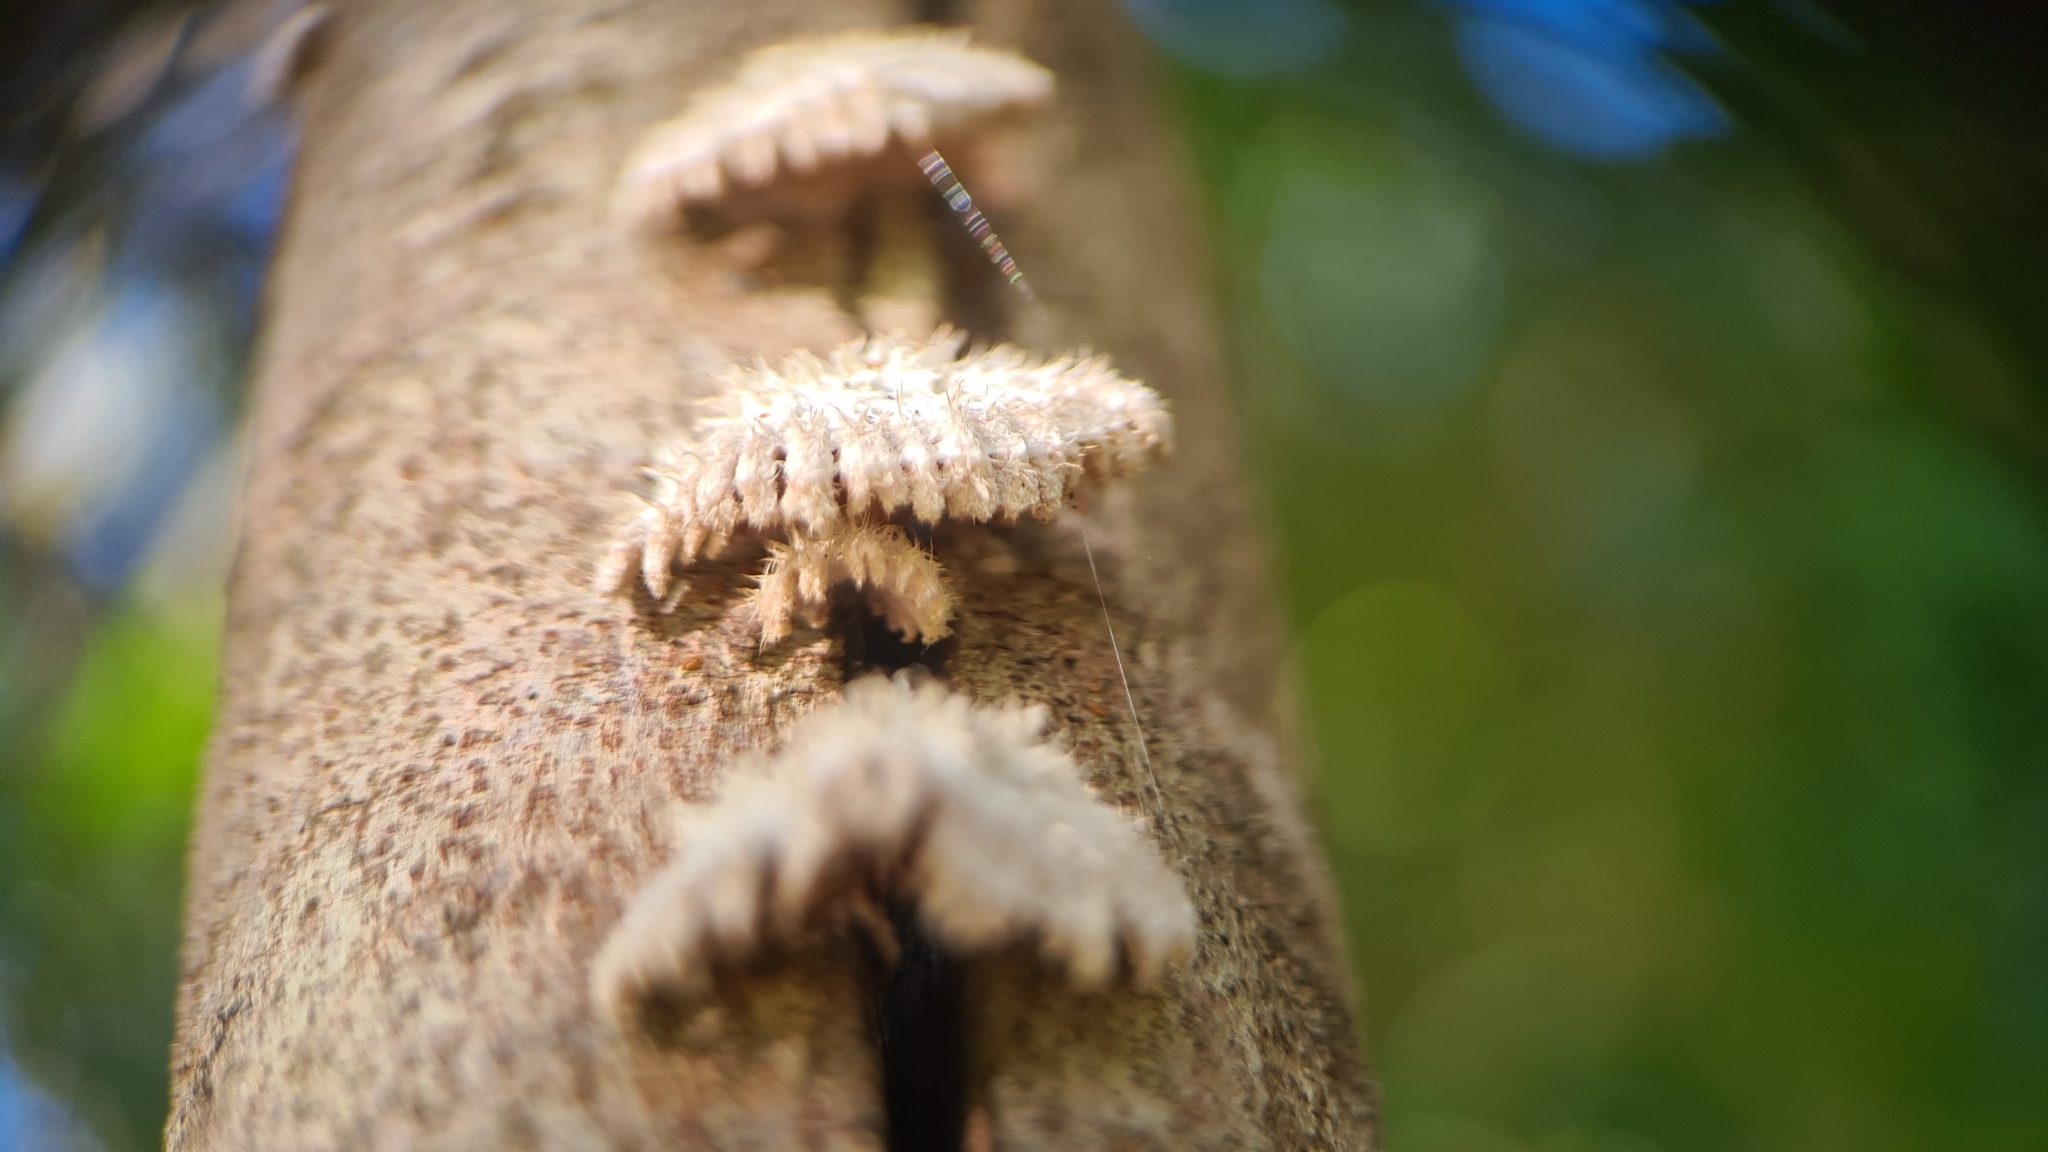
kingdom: Fungi
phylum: Basidiomycota
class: Agaricomycetes
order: Agaricales
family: Schizophyllaceae
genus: Schizophyllum
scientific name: Schizophyllum commune
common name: Common porecrust
